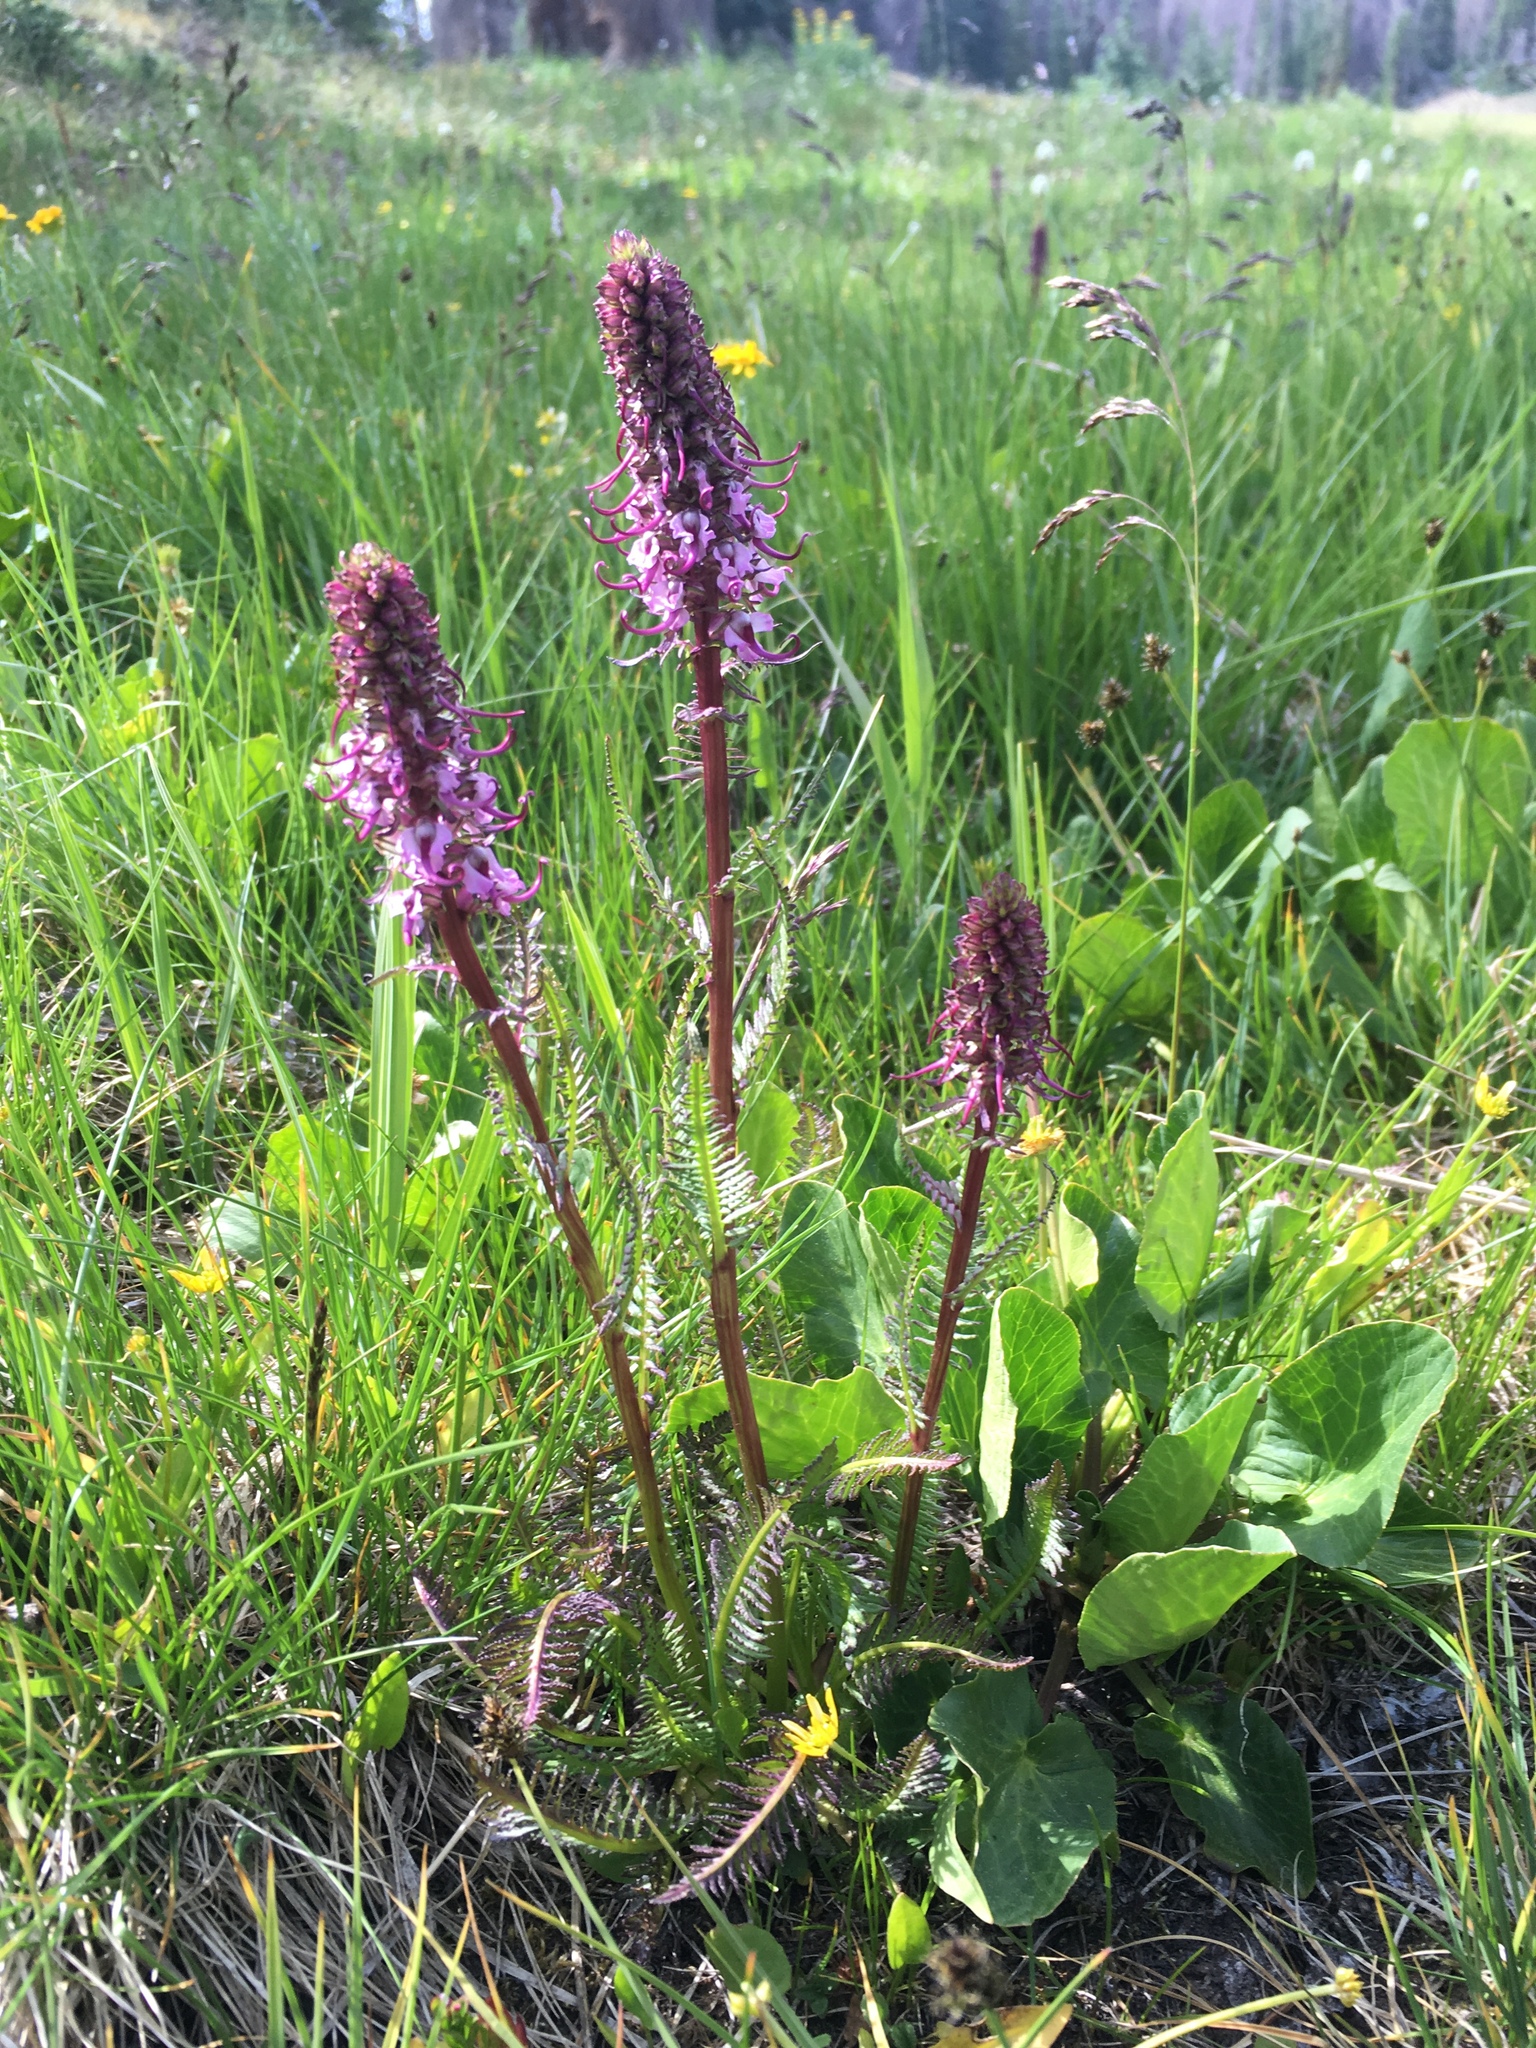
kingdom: Plantae
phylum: Tracheophyta
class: Magnoliopsida
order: Lamiales
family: Orobanchaceae
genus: Pedicularis
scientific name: Pedicularis groenlandica
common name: Elephant's-head
